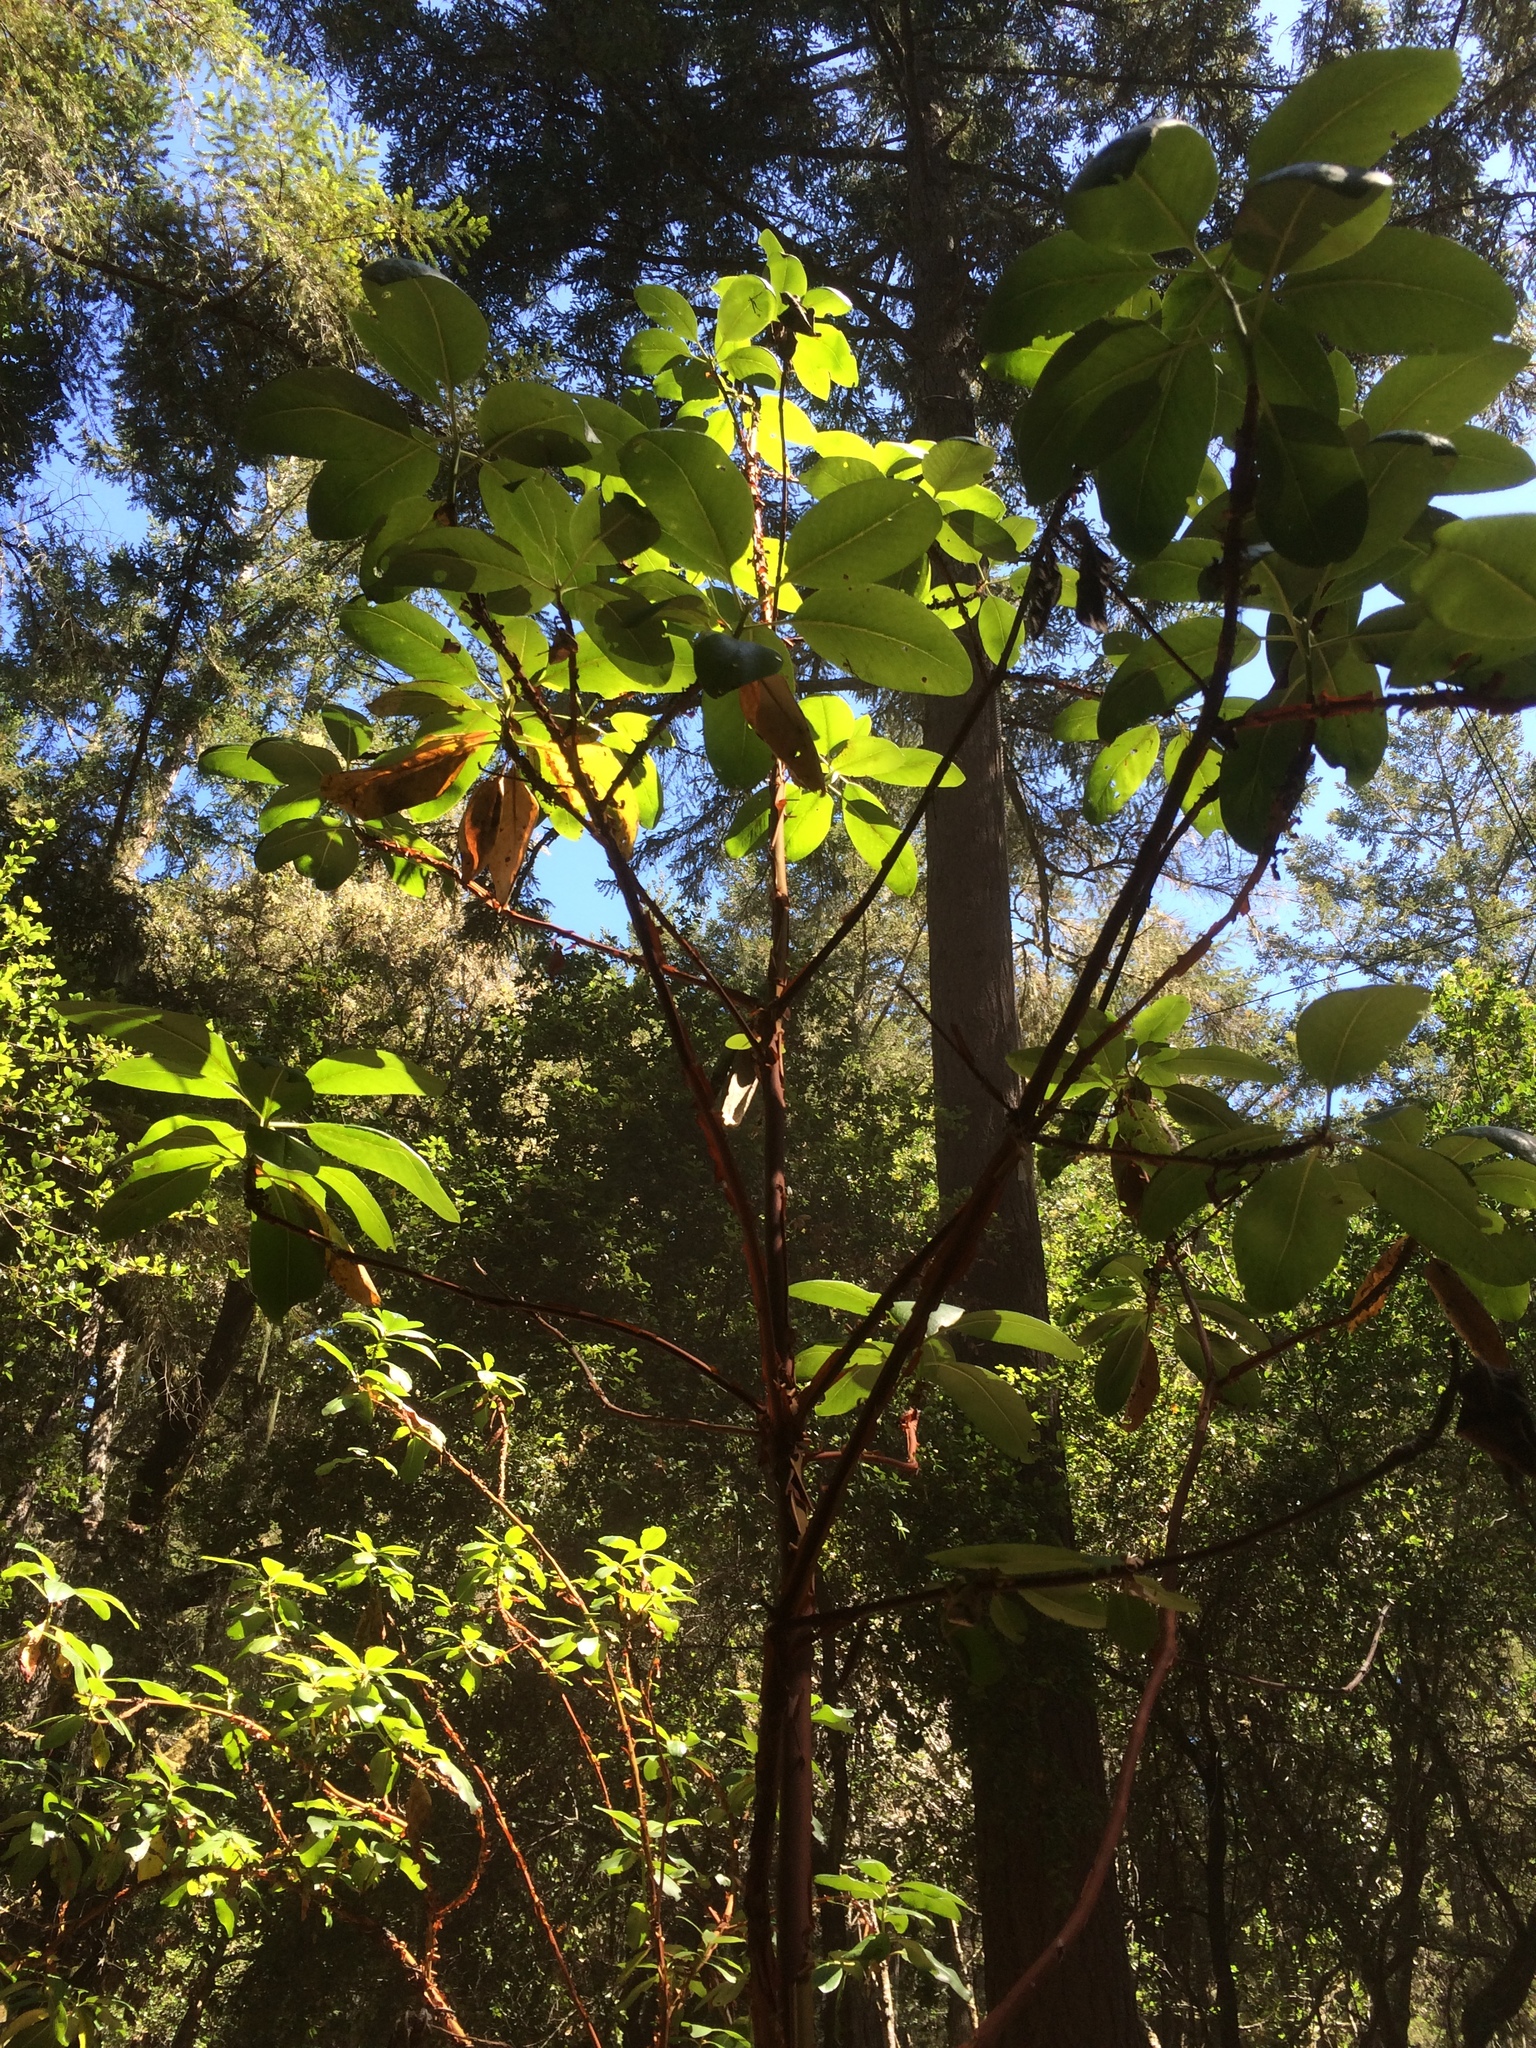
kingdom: Plantae
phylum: Tracheophyta
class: Magnoliopsida
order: Ericales
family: Ericaceae
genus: Arbutus
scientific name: Arbutus menziesii
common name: Pacific madrone
